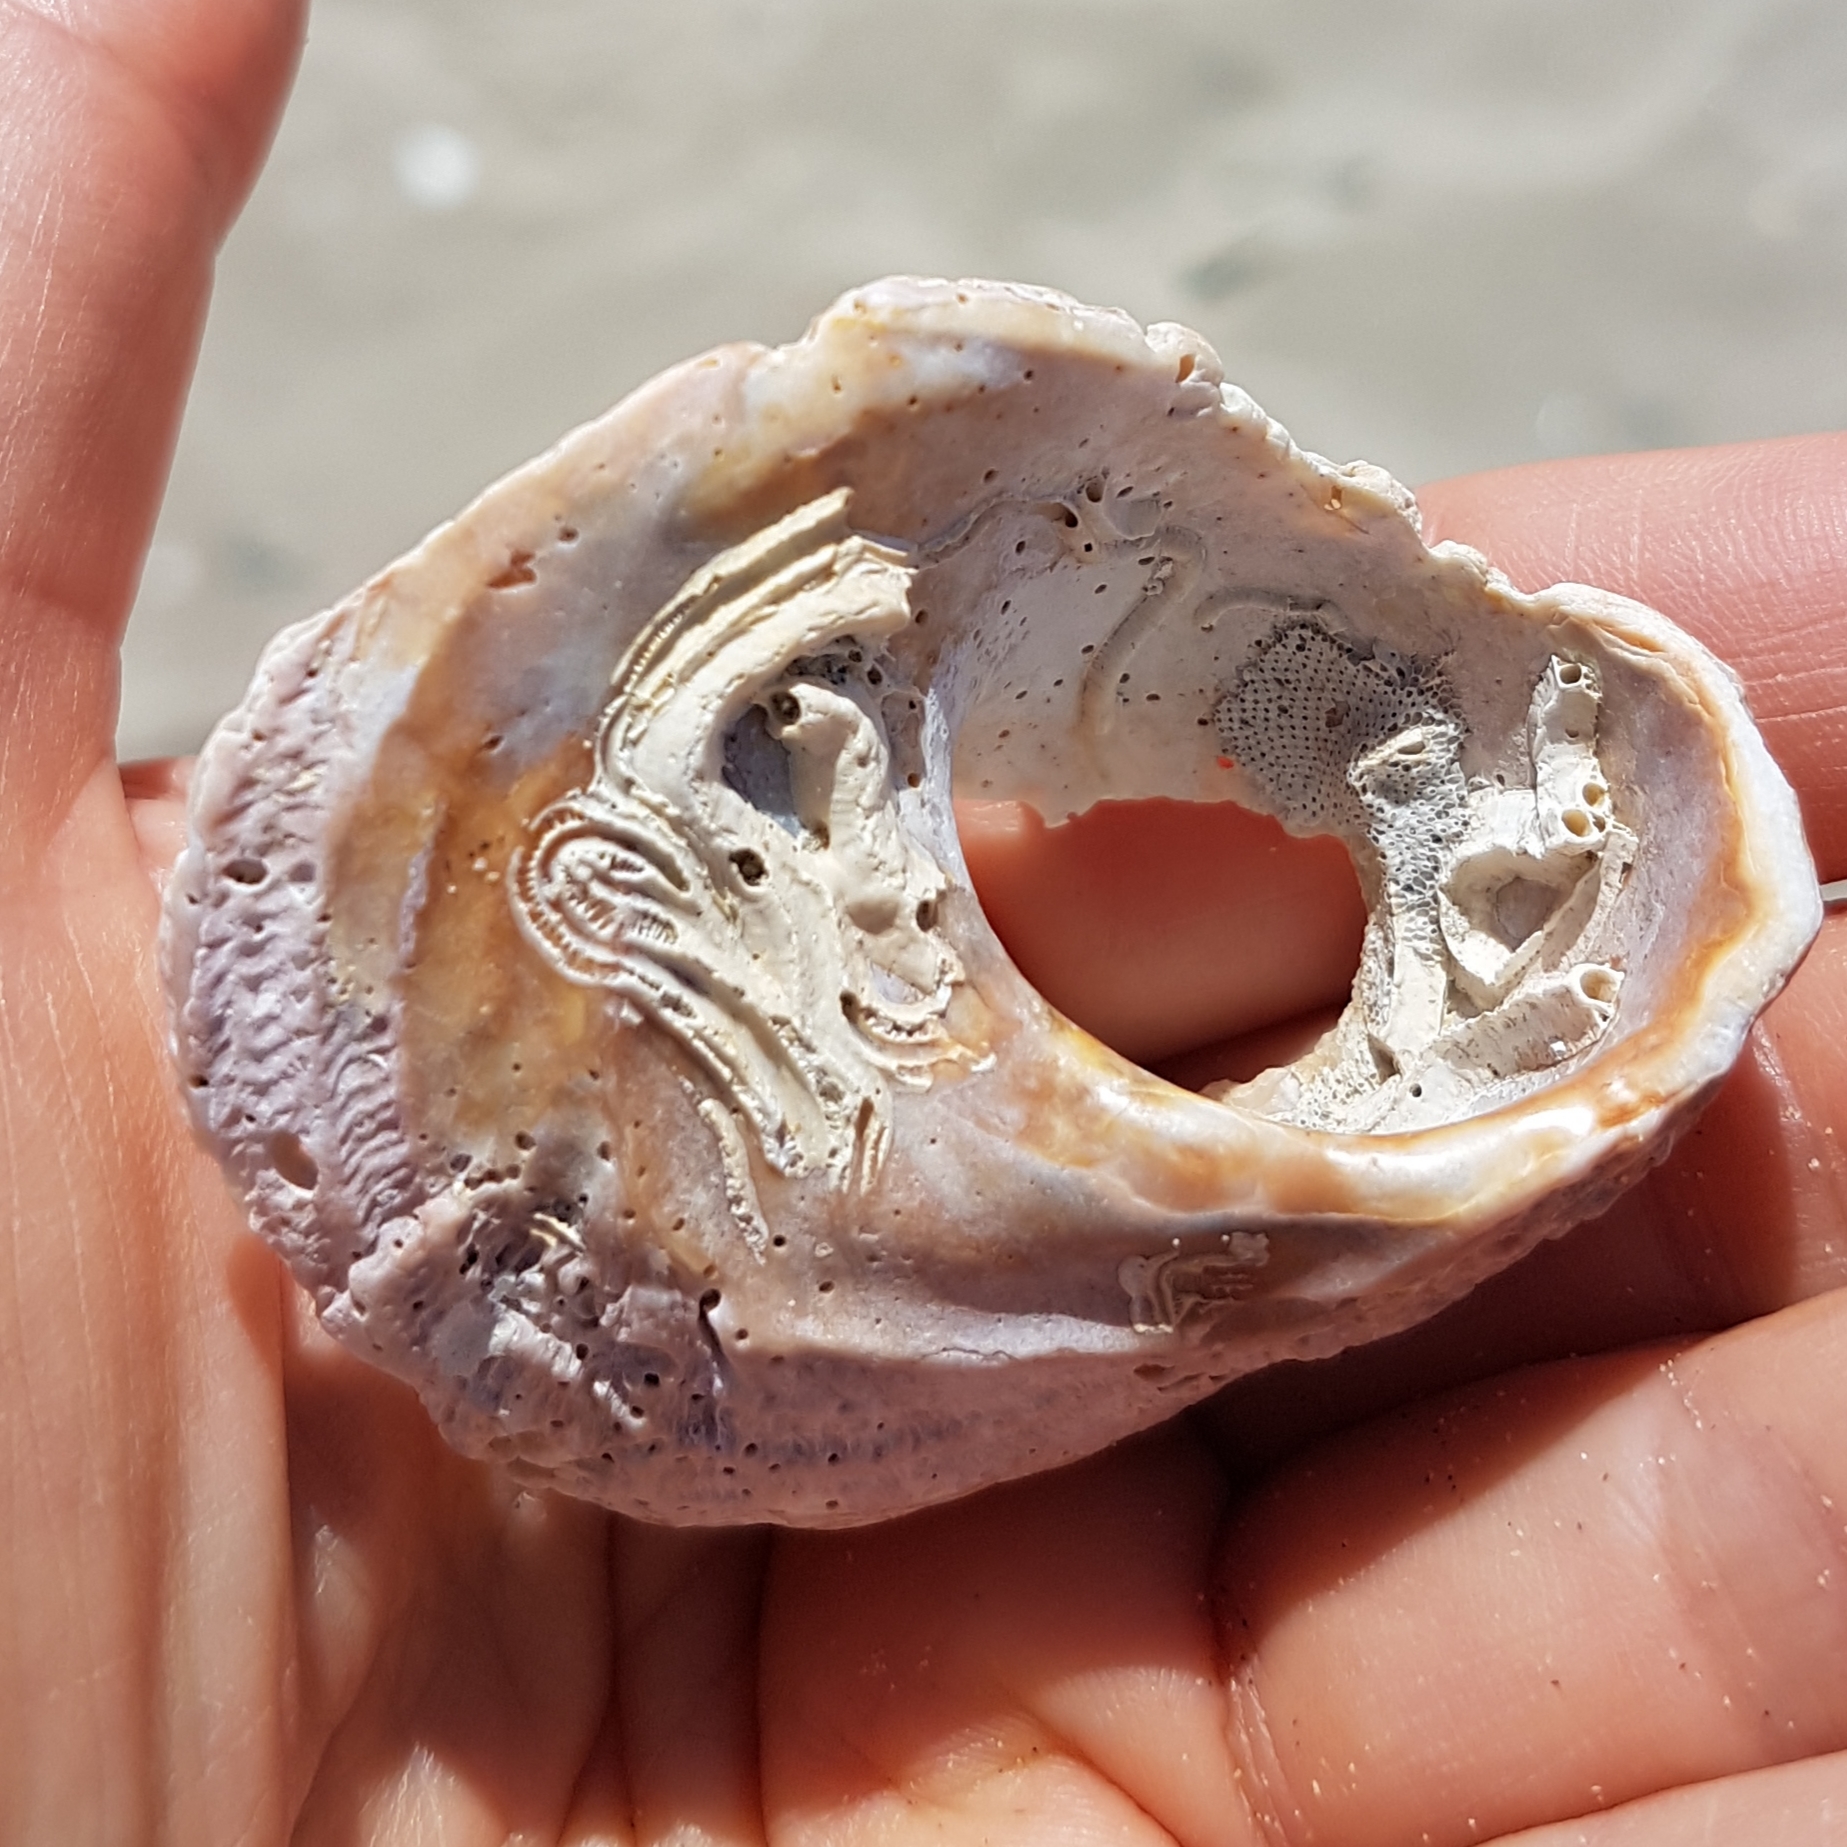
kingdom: Animalia
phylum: Mollusca
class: Gastropoda
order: Trochida
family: Turbinidae
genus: Bolma
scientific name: Bolma rugosa
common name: Rough star shell
